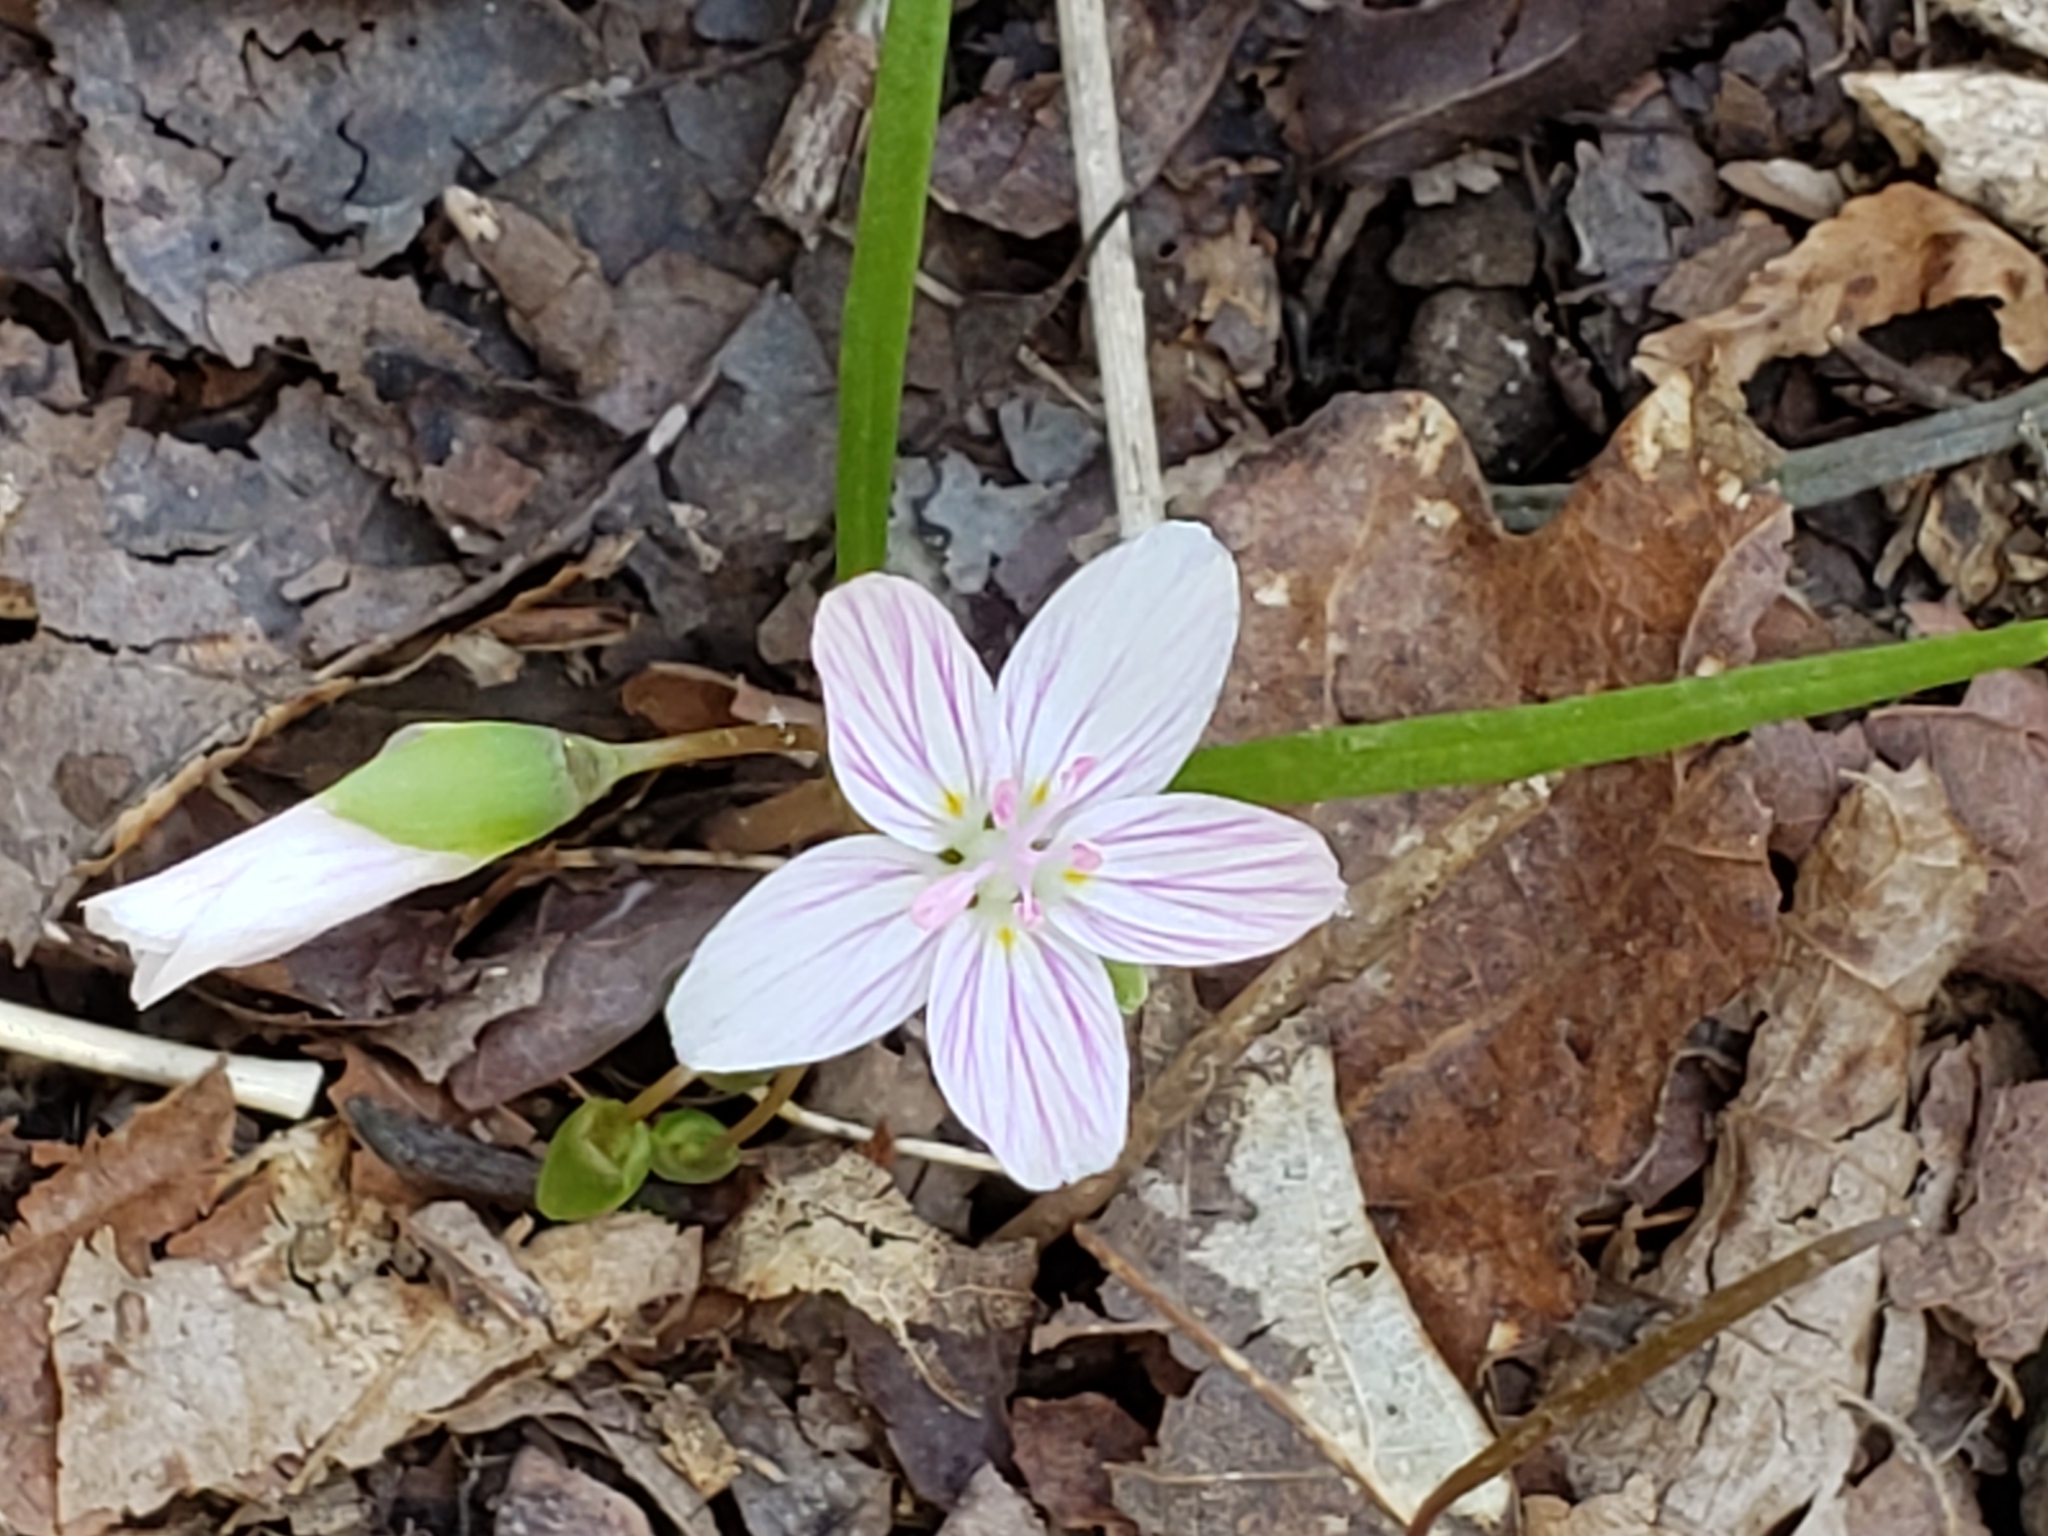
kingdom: Plantae
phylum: Tracheophyta
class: Magnoliopsida
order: Caryophyllales
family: Montiaceae
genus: Claytonia
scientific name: Claytonia virginica
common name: Virginia springbeauty
